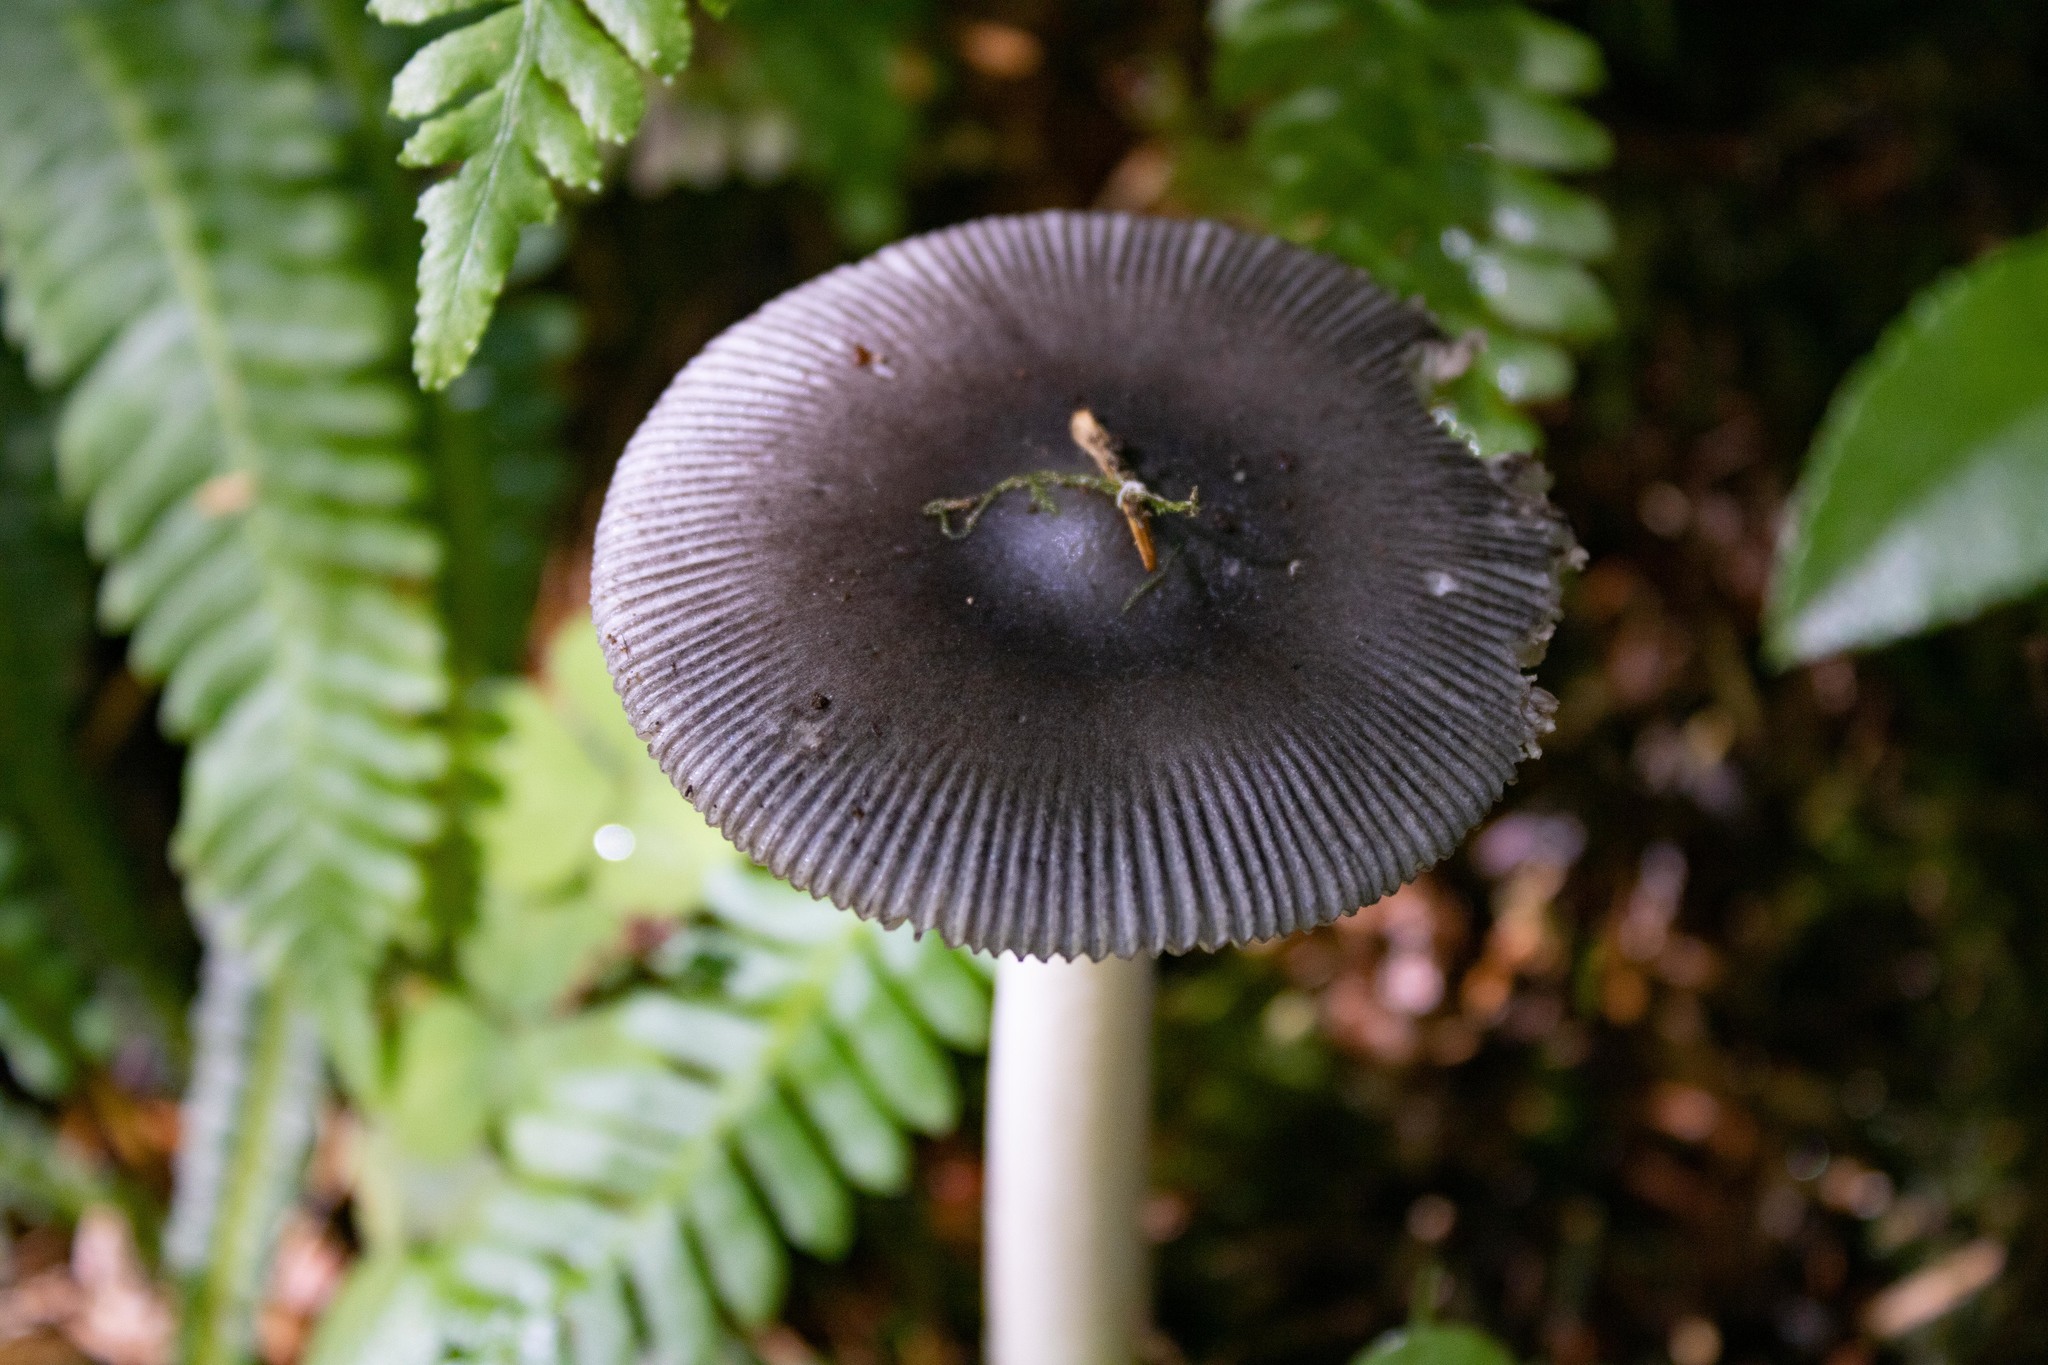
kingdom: Fungi
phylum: Basidiomycota
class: Agaricomycetes
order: Agaricales
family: Amanitaceae
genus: Amanita
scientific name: Amanita pachycolea
